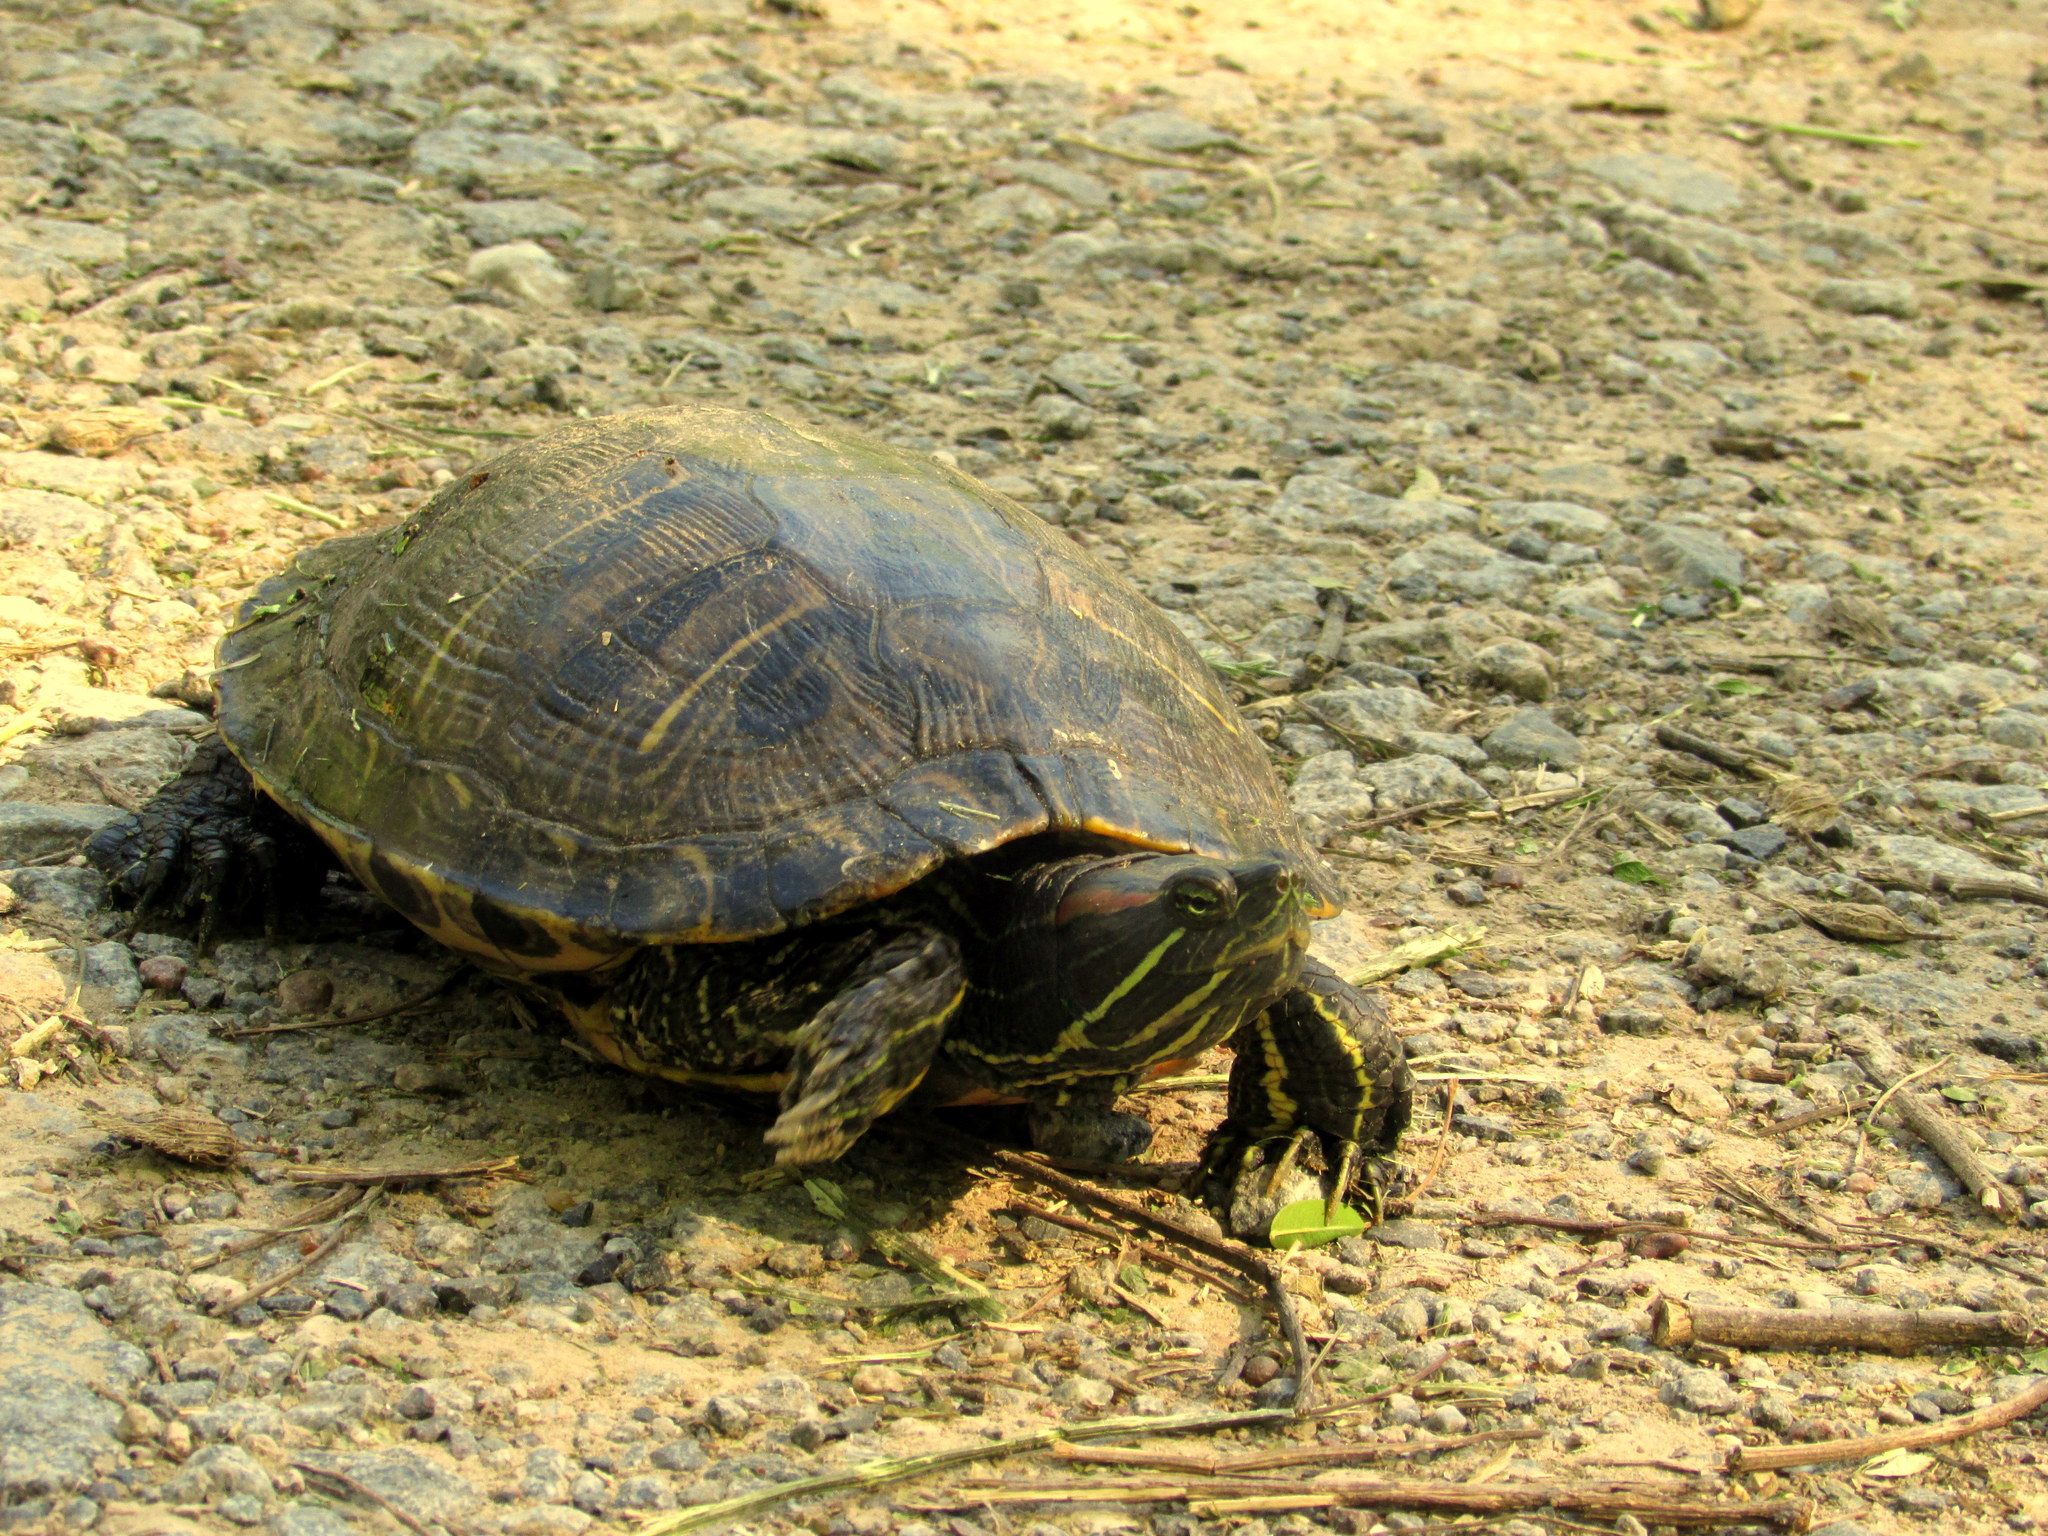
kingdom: Animalia
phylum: Chordata
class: Testudines
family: Emydidae
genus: Trachemys
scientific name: Trachemys scripta
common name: Slider
